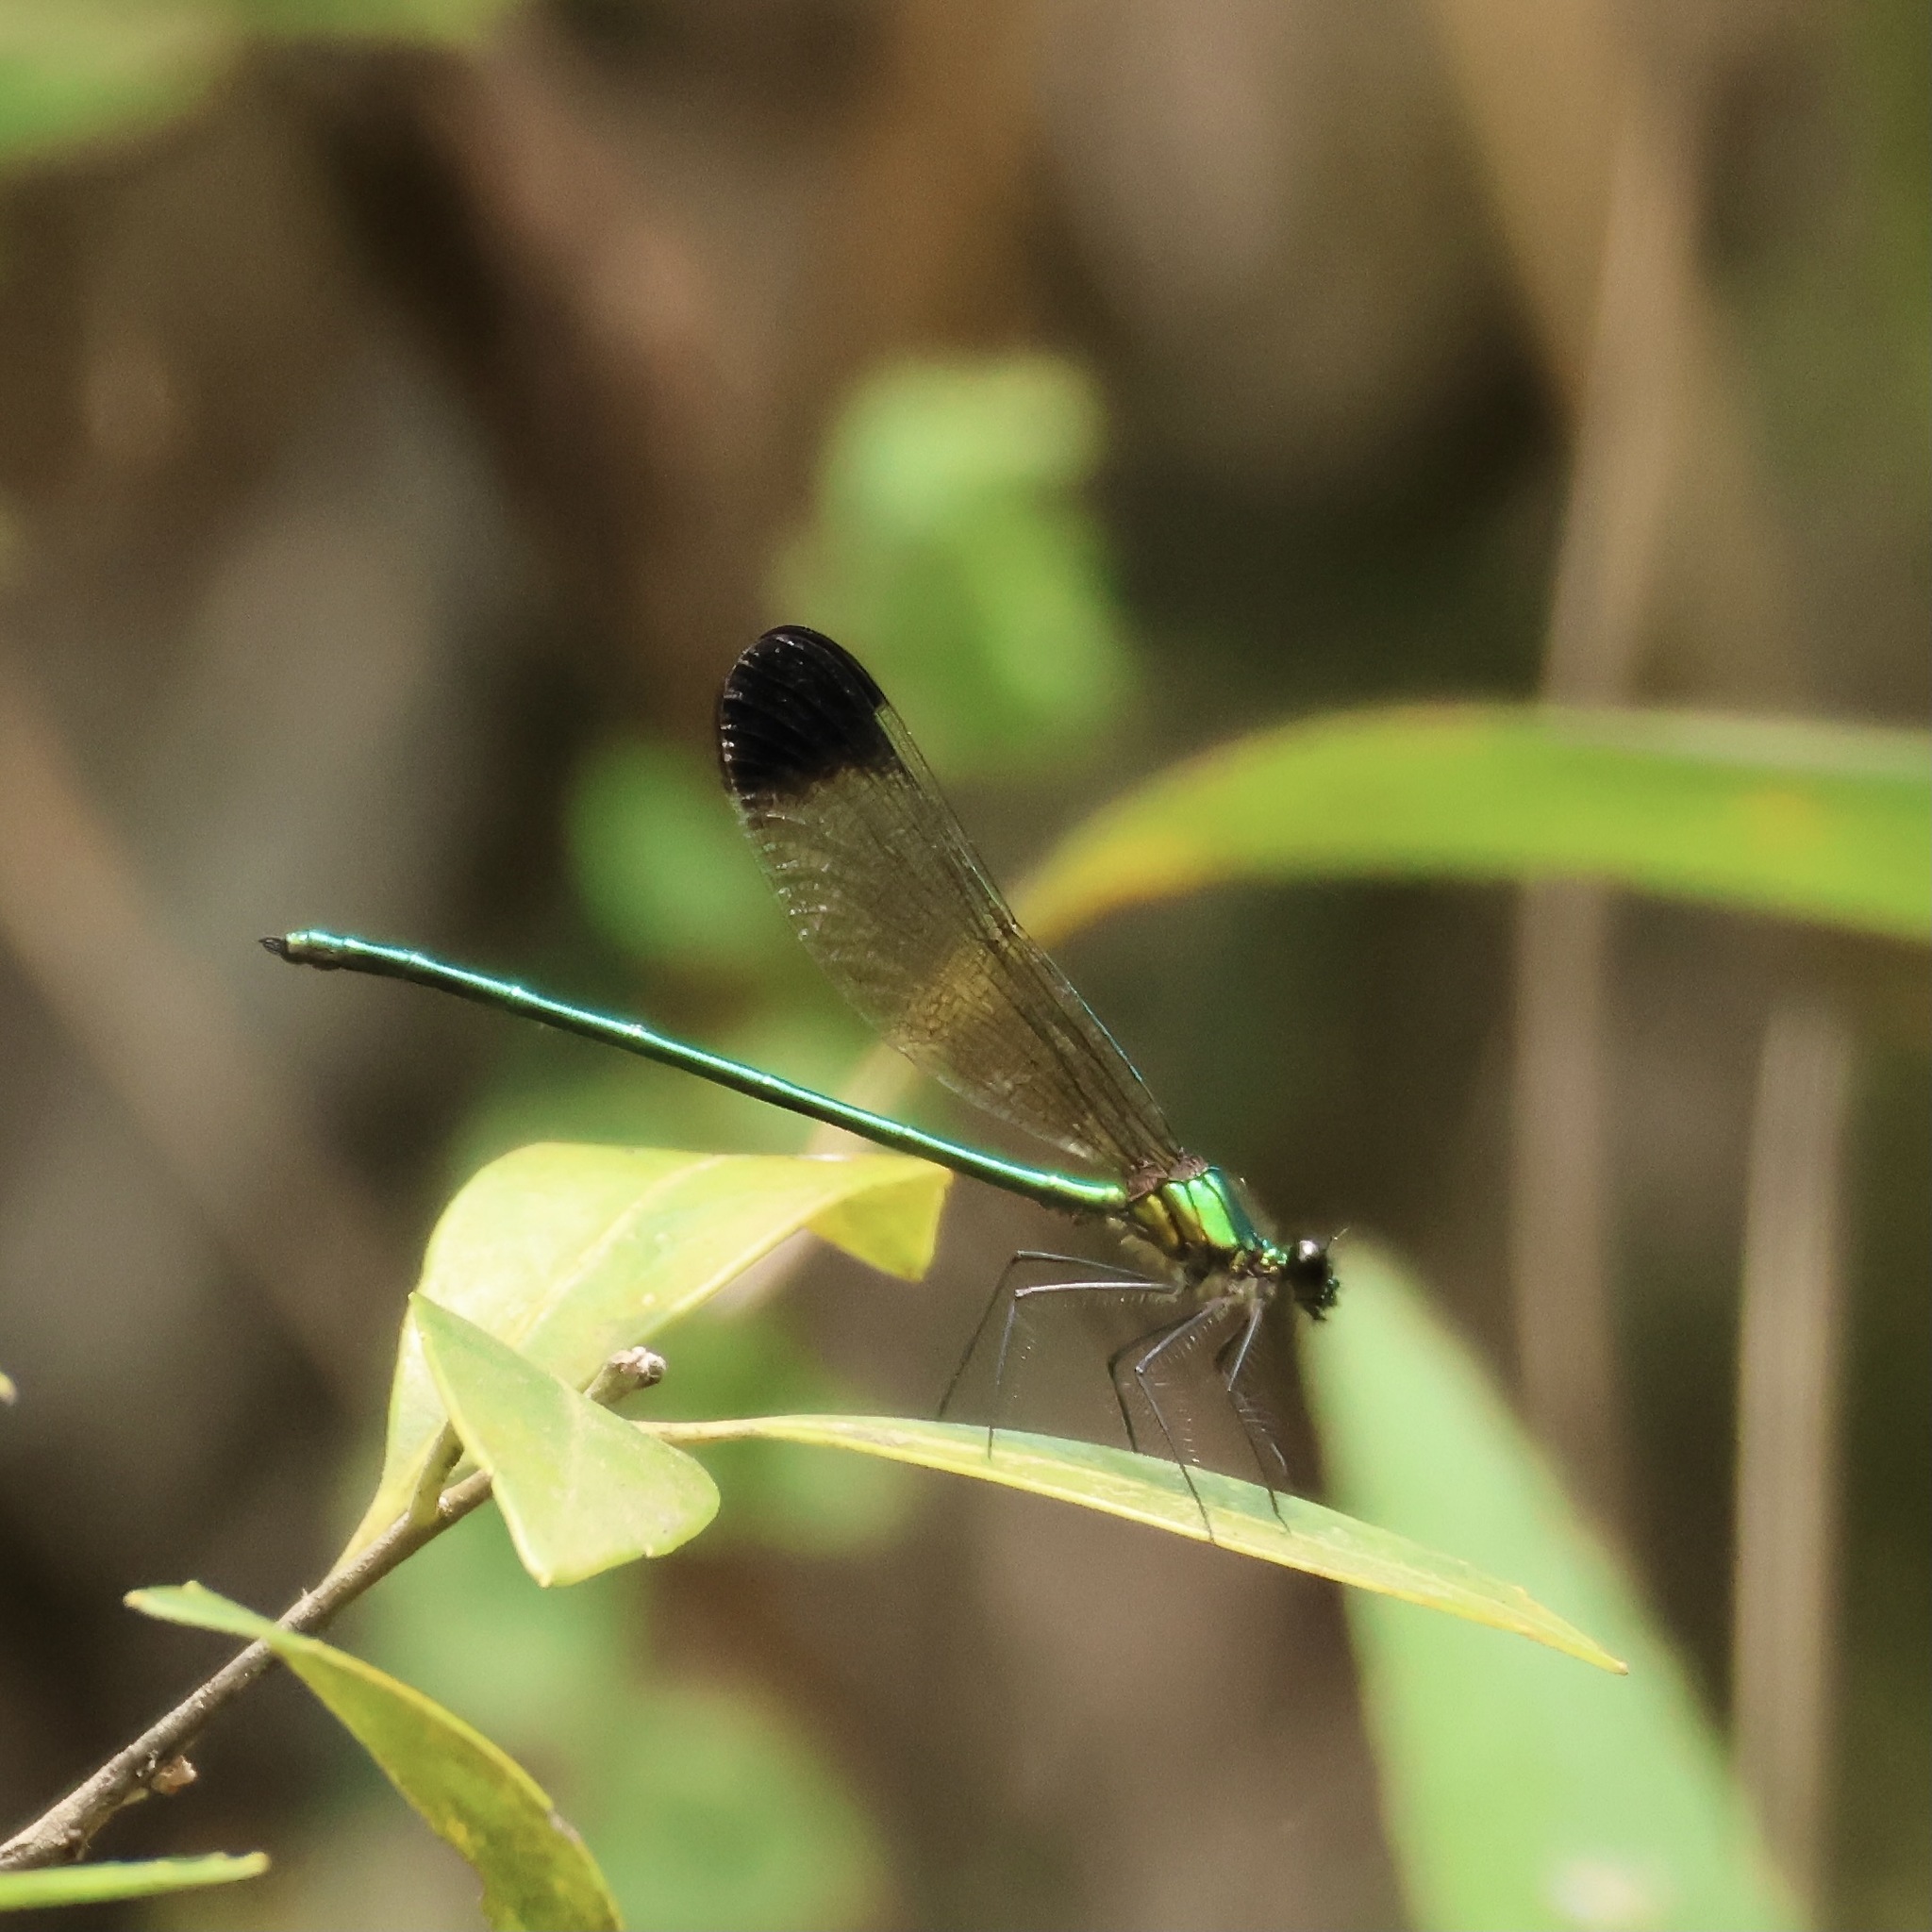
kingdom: Animalia
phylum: Arthropoda
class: Insecta
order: Odonata
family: Calopterygidae
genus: Calopteryx
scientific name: Calopteryx dimidiata
